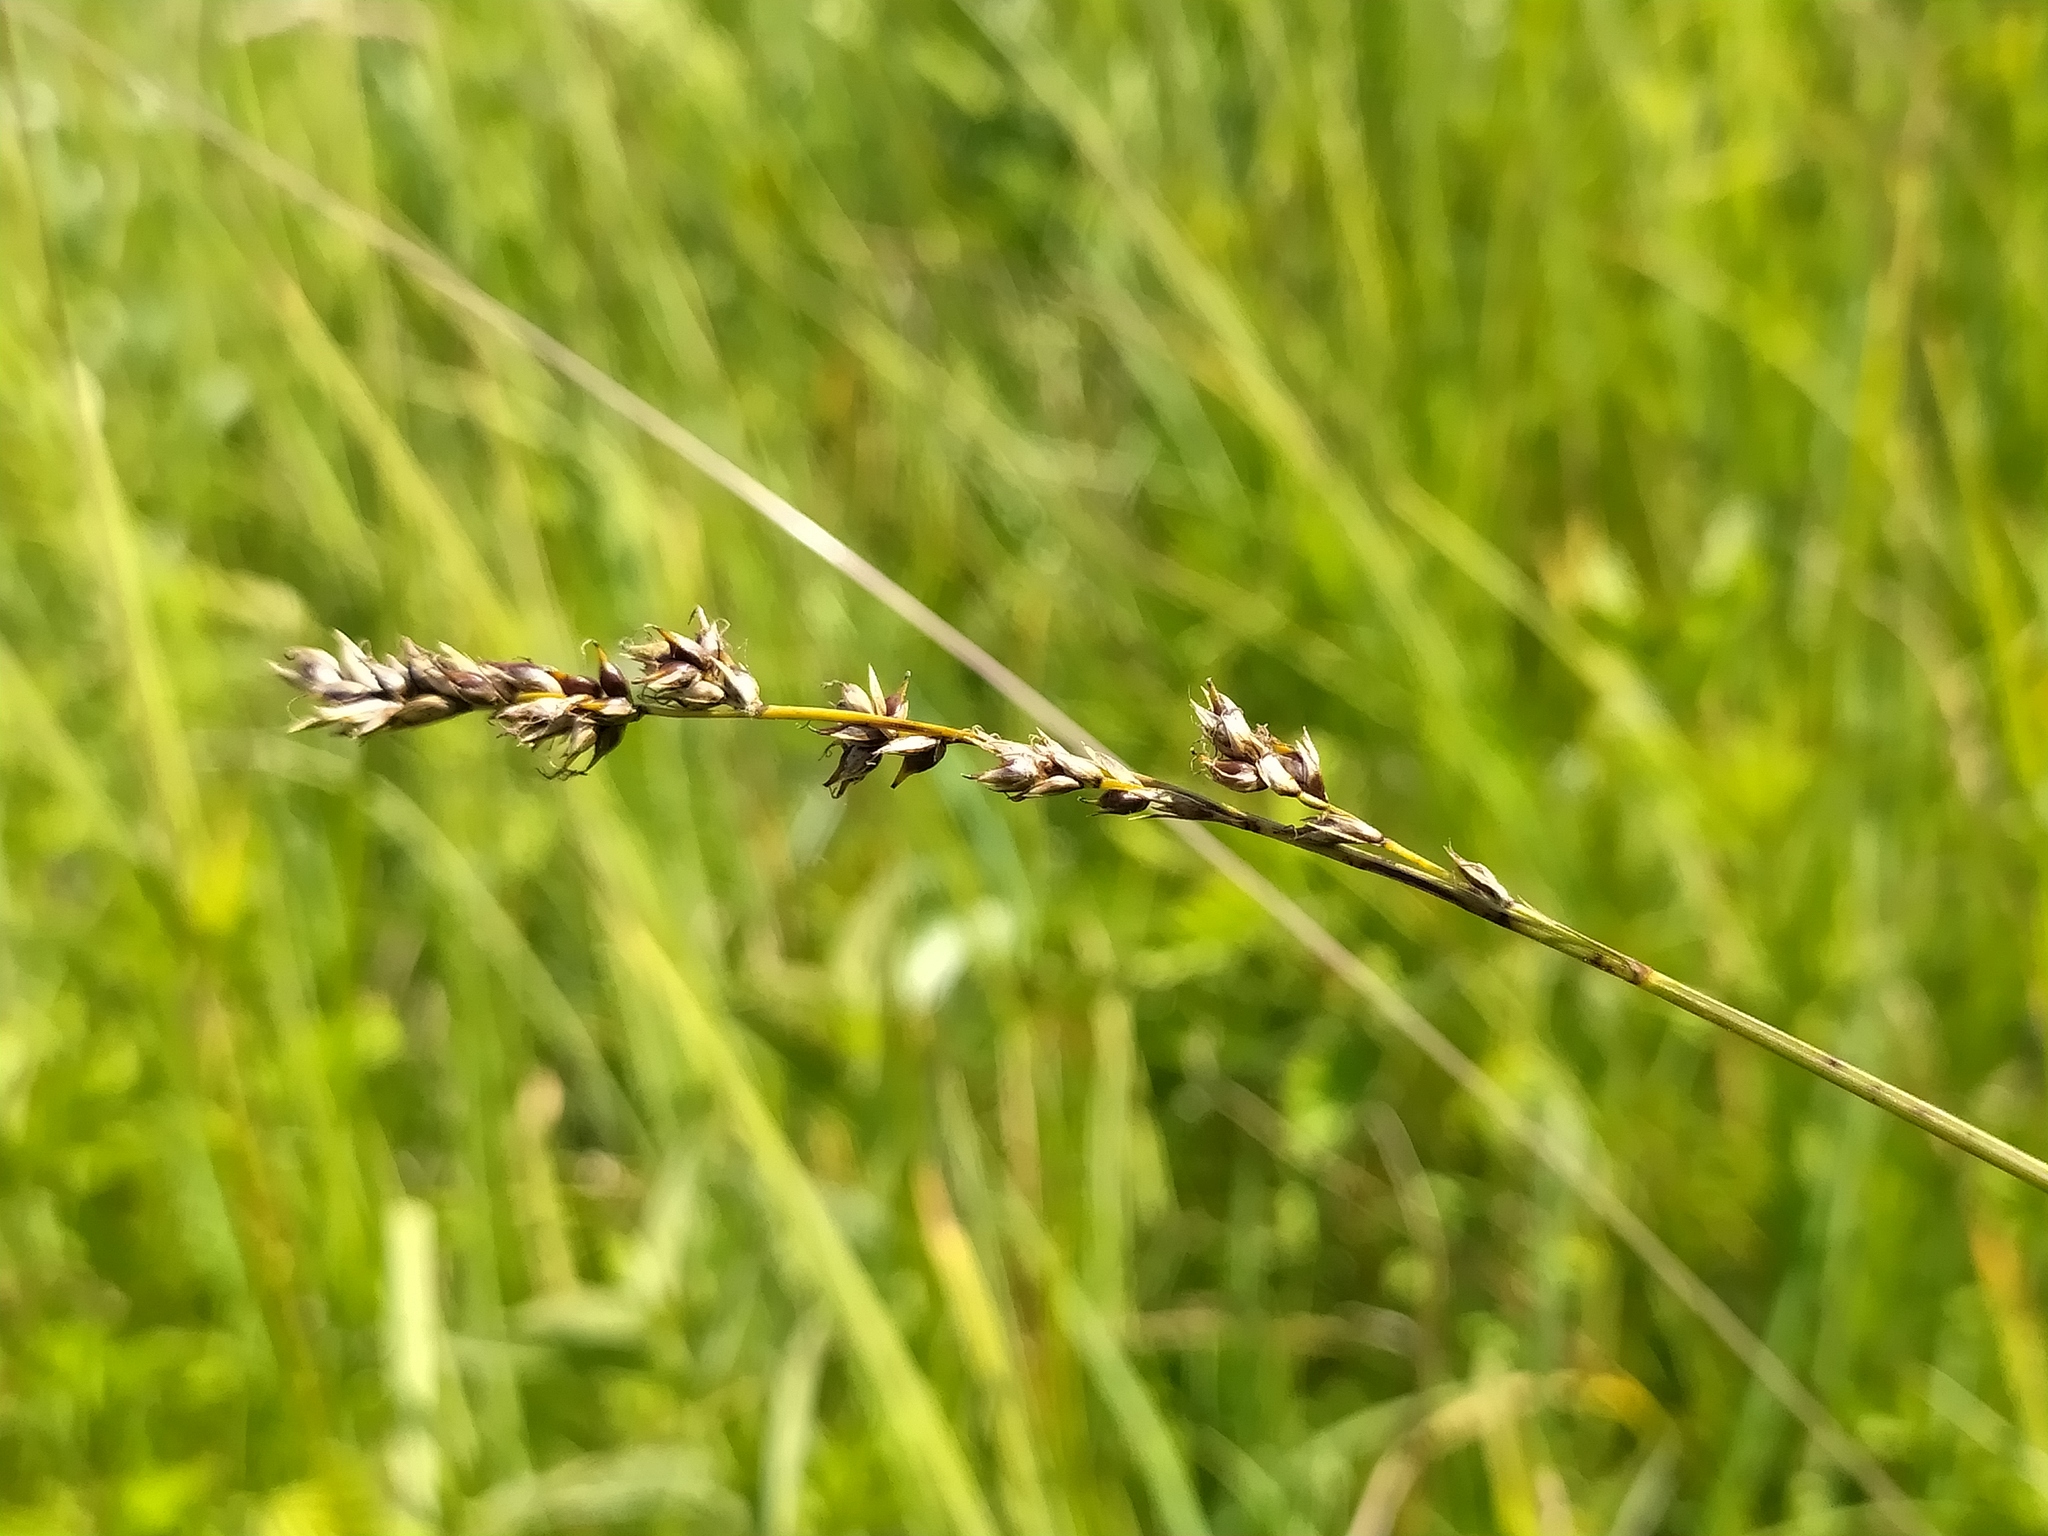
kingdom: Plantae
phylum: Tracheophyta
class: Liliopsida
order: Poales
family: Cyperaceae
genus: Carex
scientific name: Carex appropinquata
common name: Fibrous tussock-sedge
